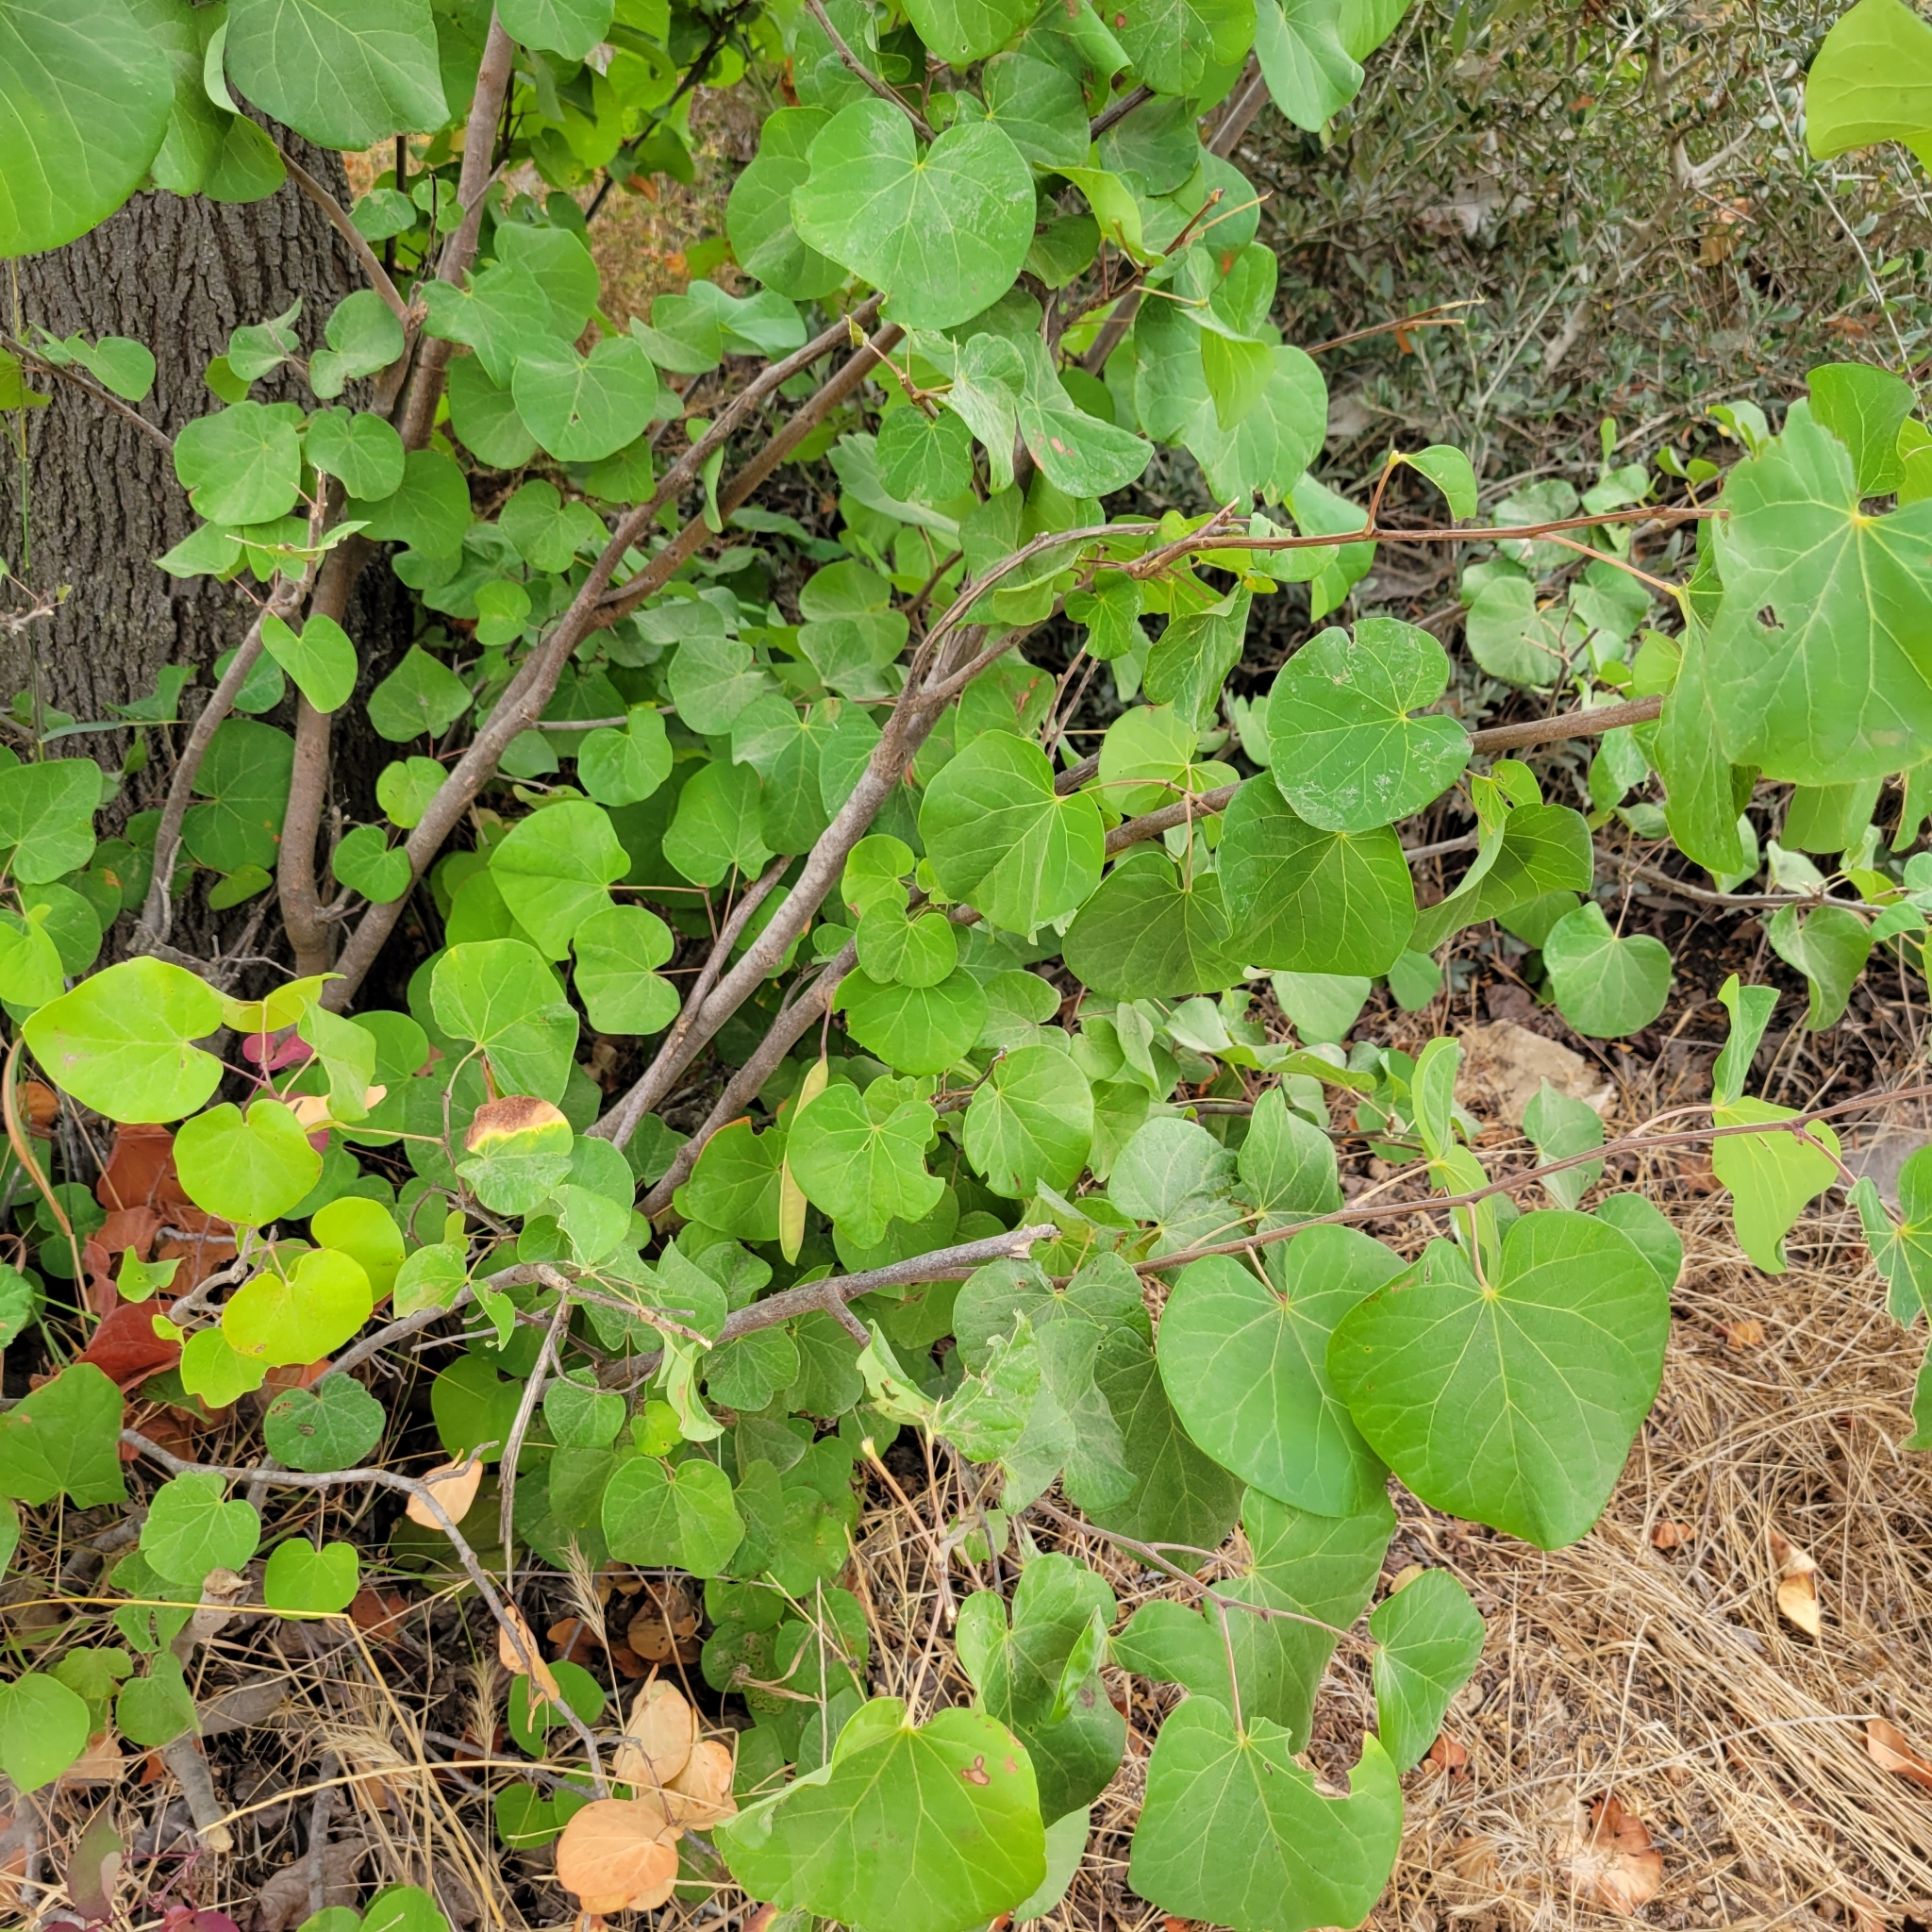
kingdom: Plantae
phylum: Tracheophyta
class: Magnoliopsida
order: Fabales
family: Fabaceae
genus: Cercis
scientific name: Cercis siliquastrum
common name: Judas tree
